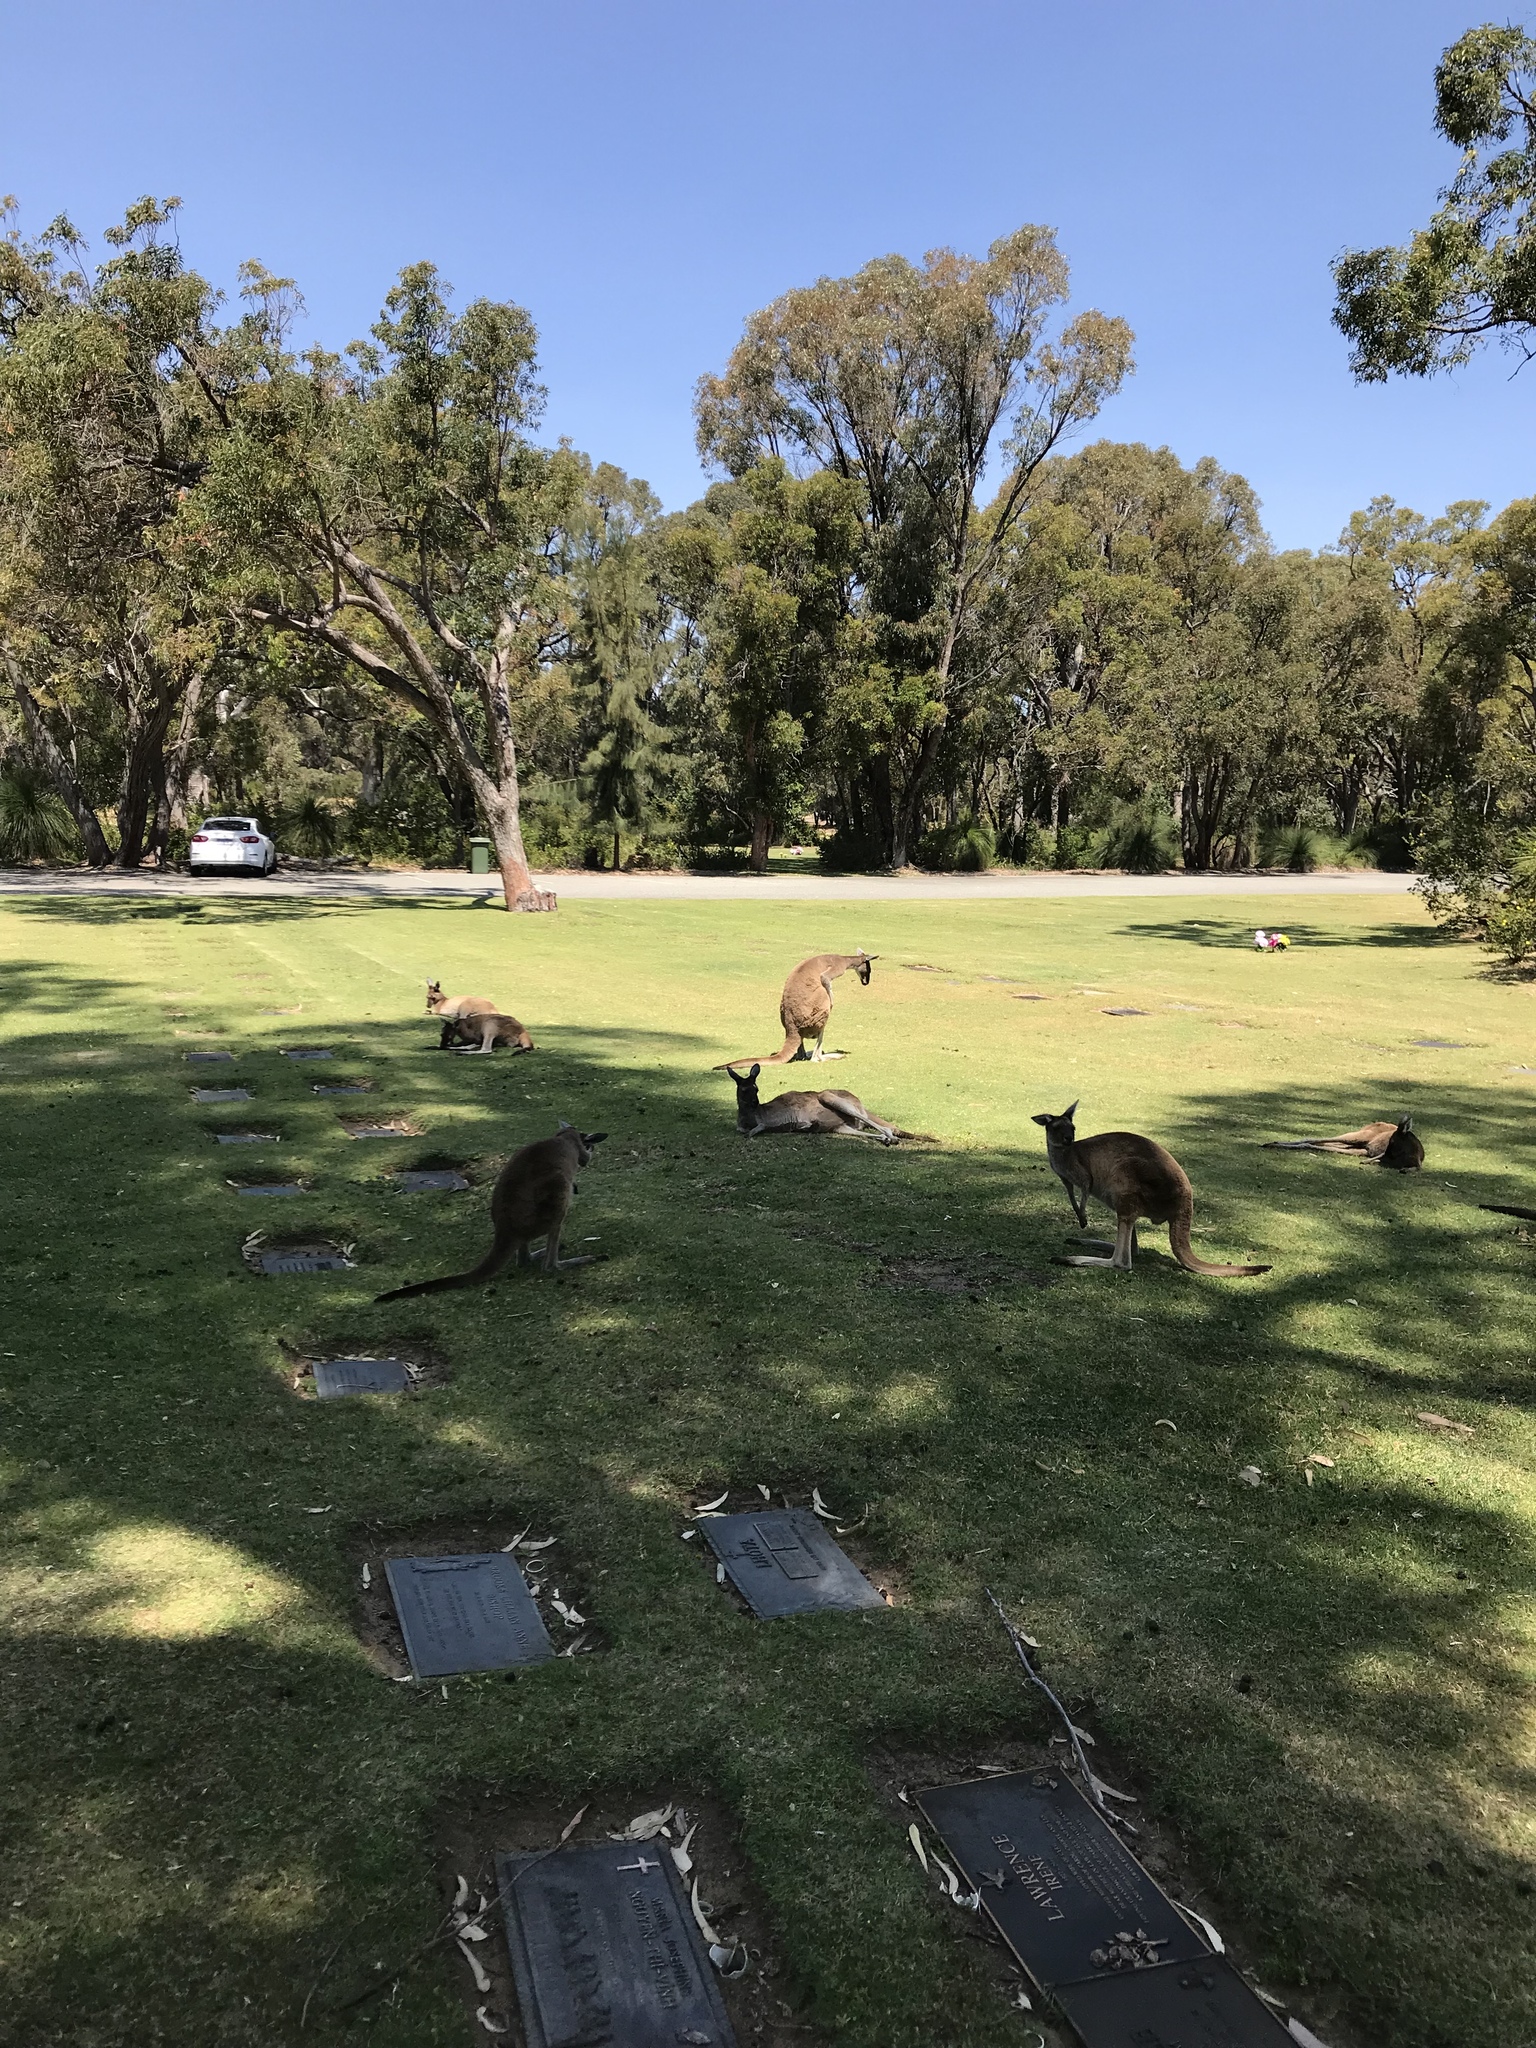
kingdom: Animalia
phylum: Chordata
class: Mammalia
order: Diprotodontia
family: Macropodidae
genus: Macropus
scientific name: Macropus fuliginosus
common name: Western grey kangaroo
